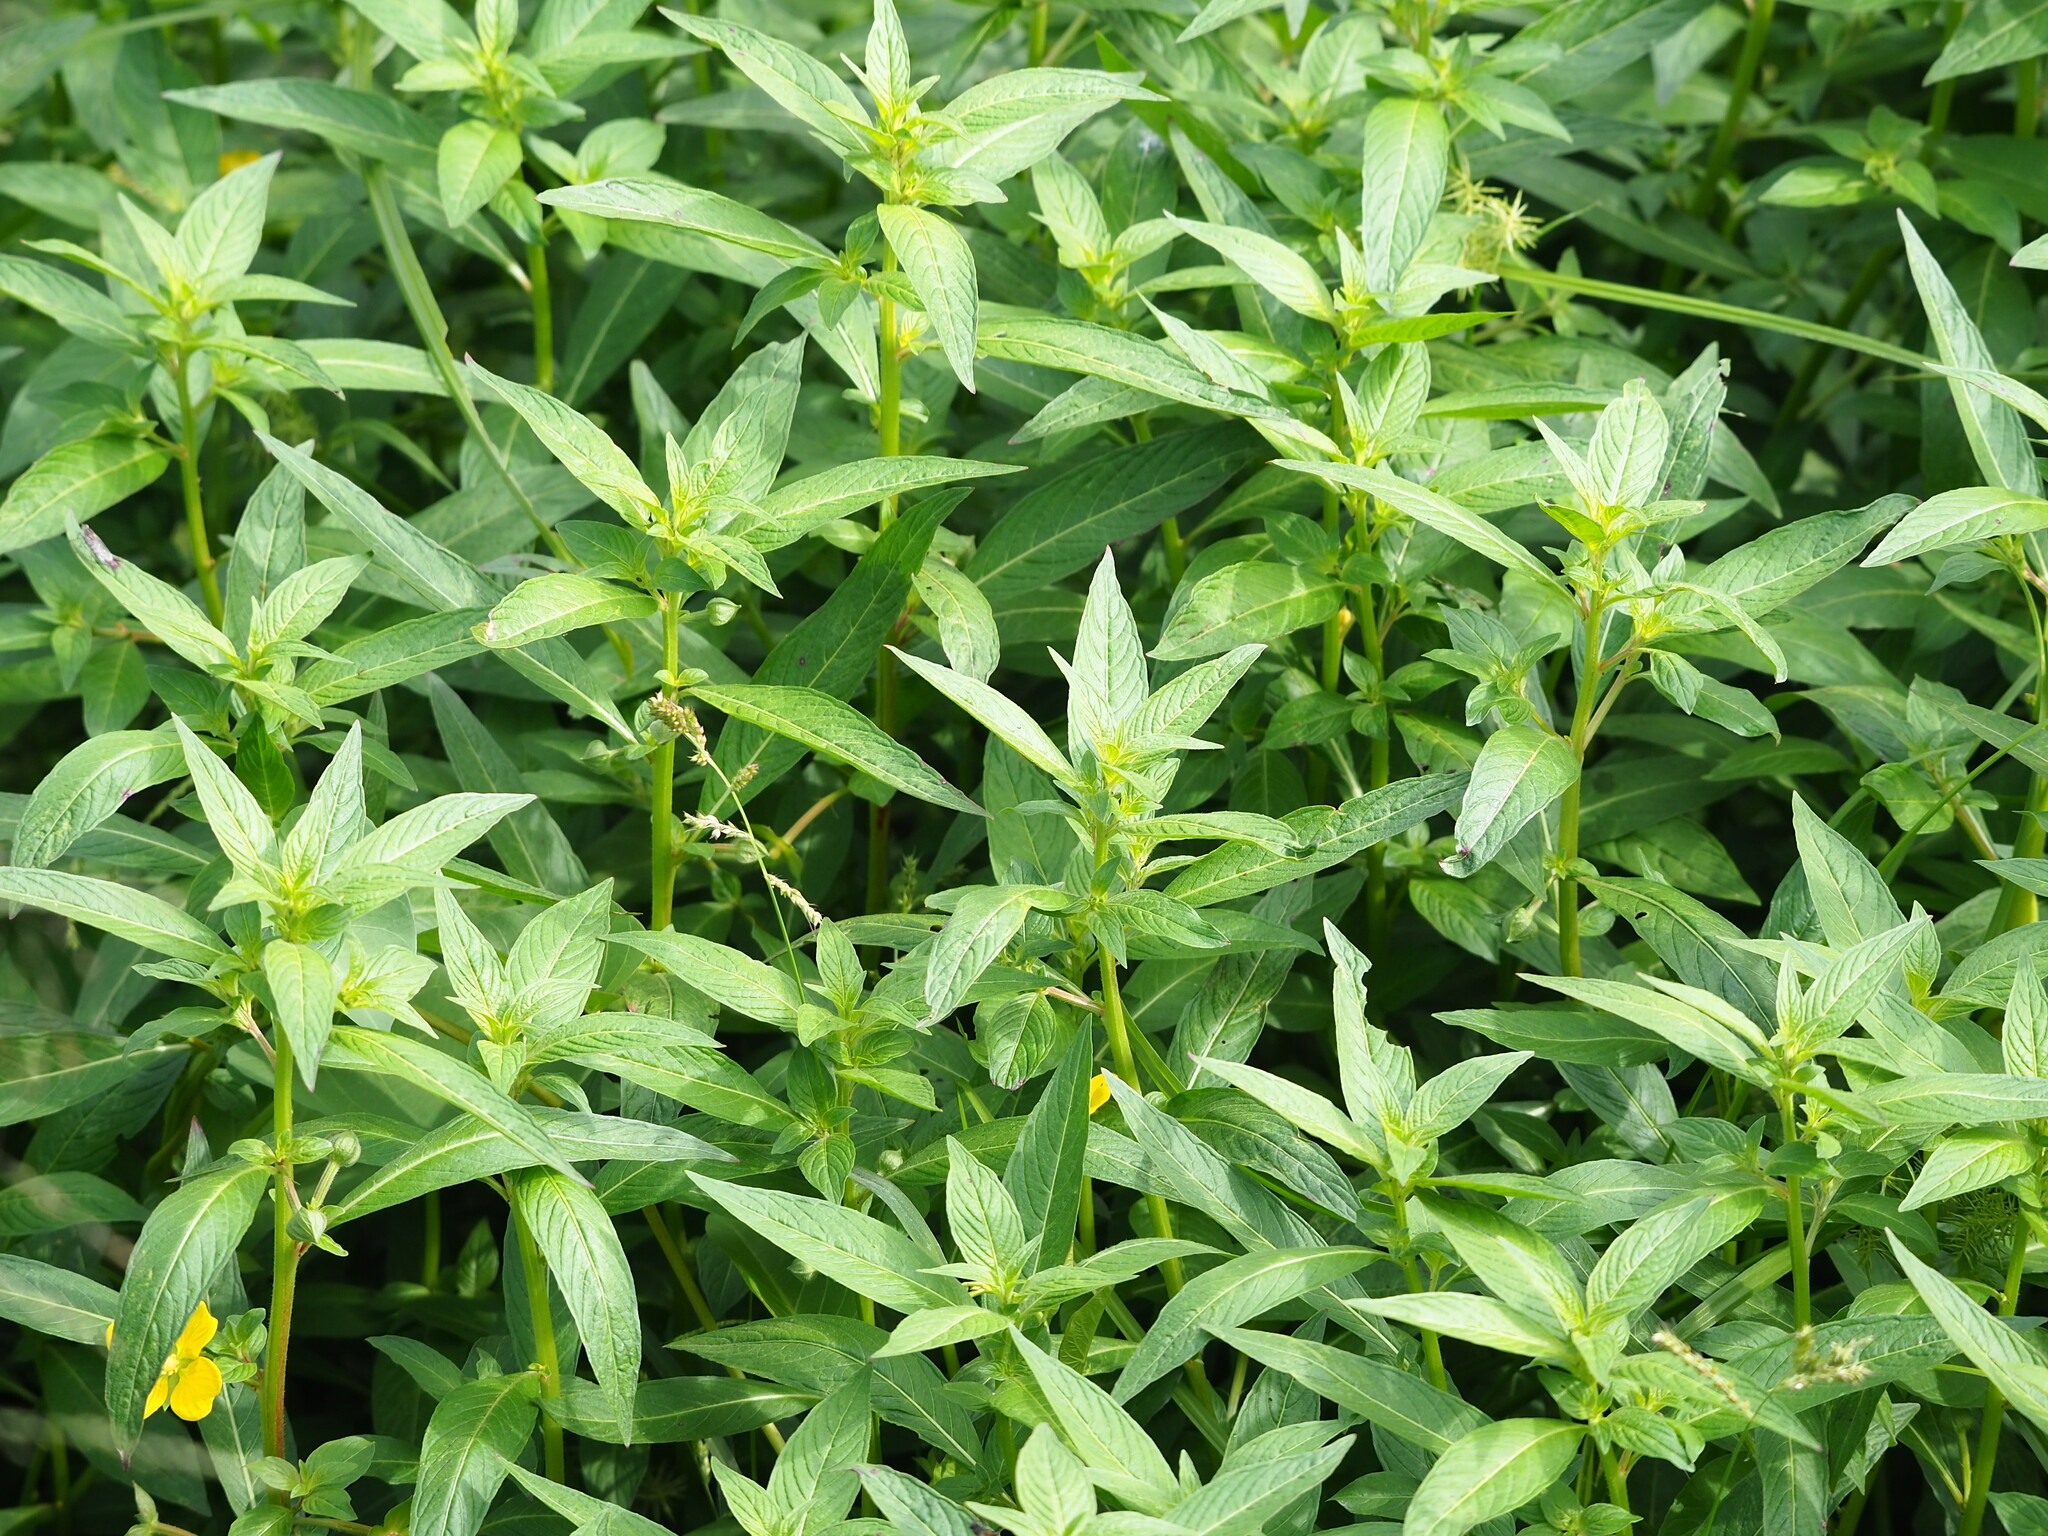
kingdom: Plantae
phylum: Tracheophyta
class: Magnoliopsida
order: Myrtales
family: Onagraceae
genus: Ludwigia
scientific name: Ludwigia octovalvis
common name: Water-primrose
